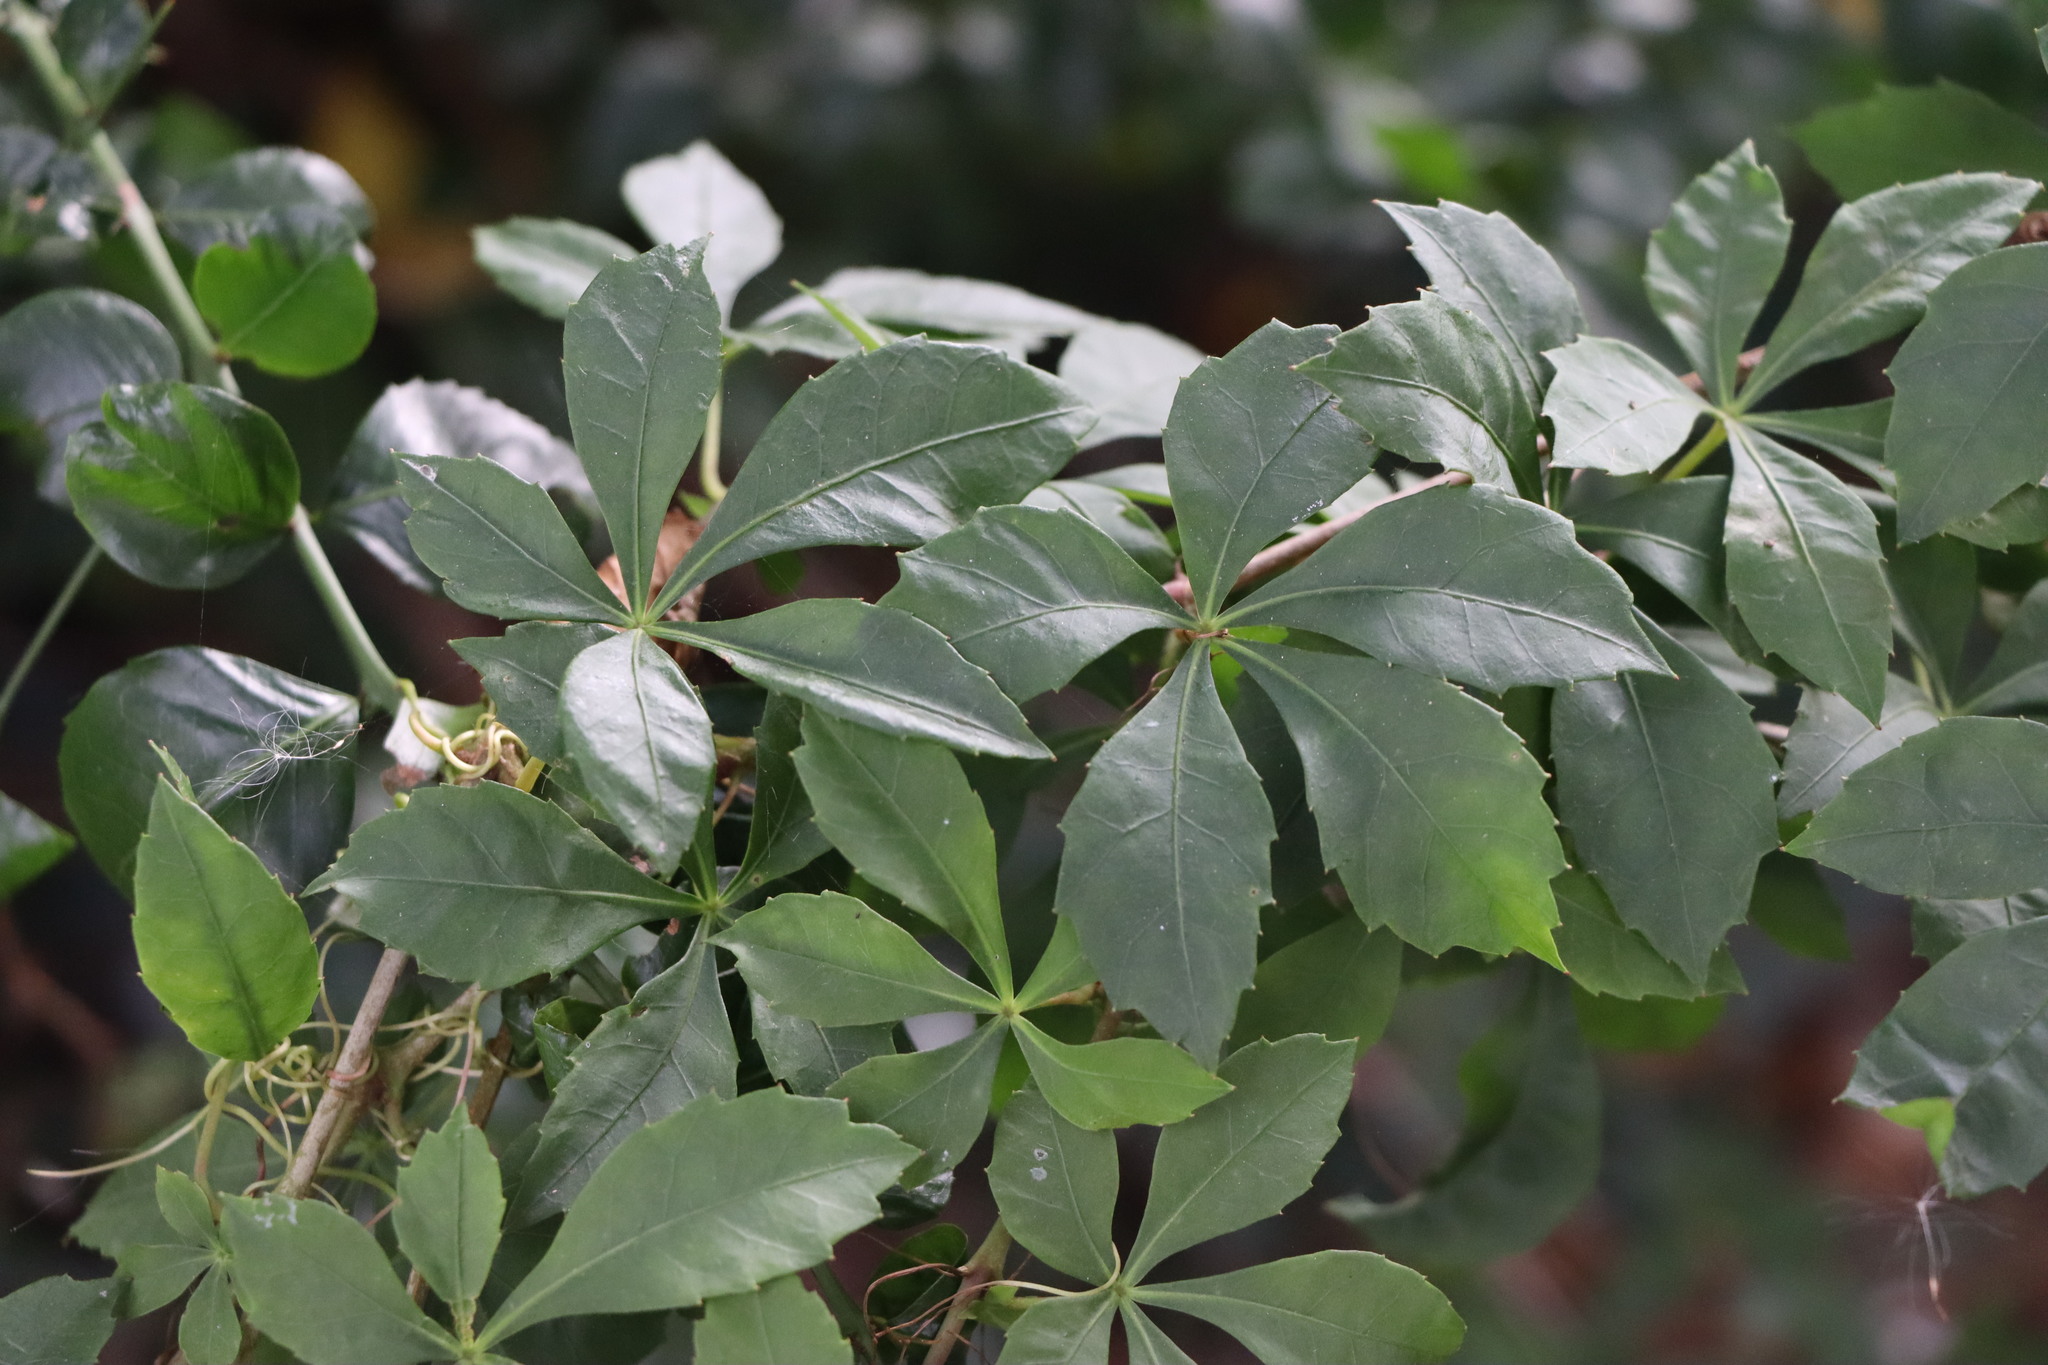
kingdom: Plantae
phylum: Tracheophyta
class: Magnoliopsida
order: Vitales
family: Vitaceae
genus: Clematicissus
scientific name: Clematicissus striata
